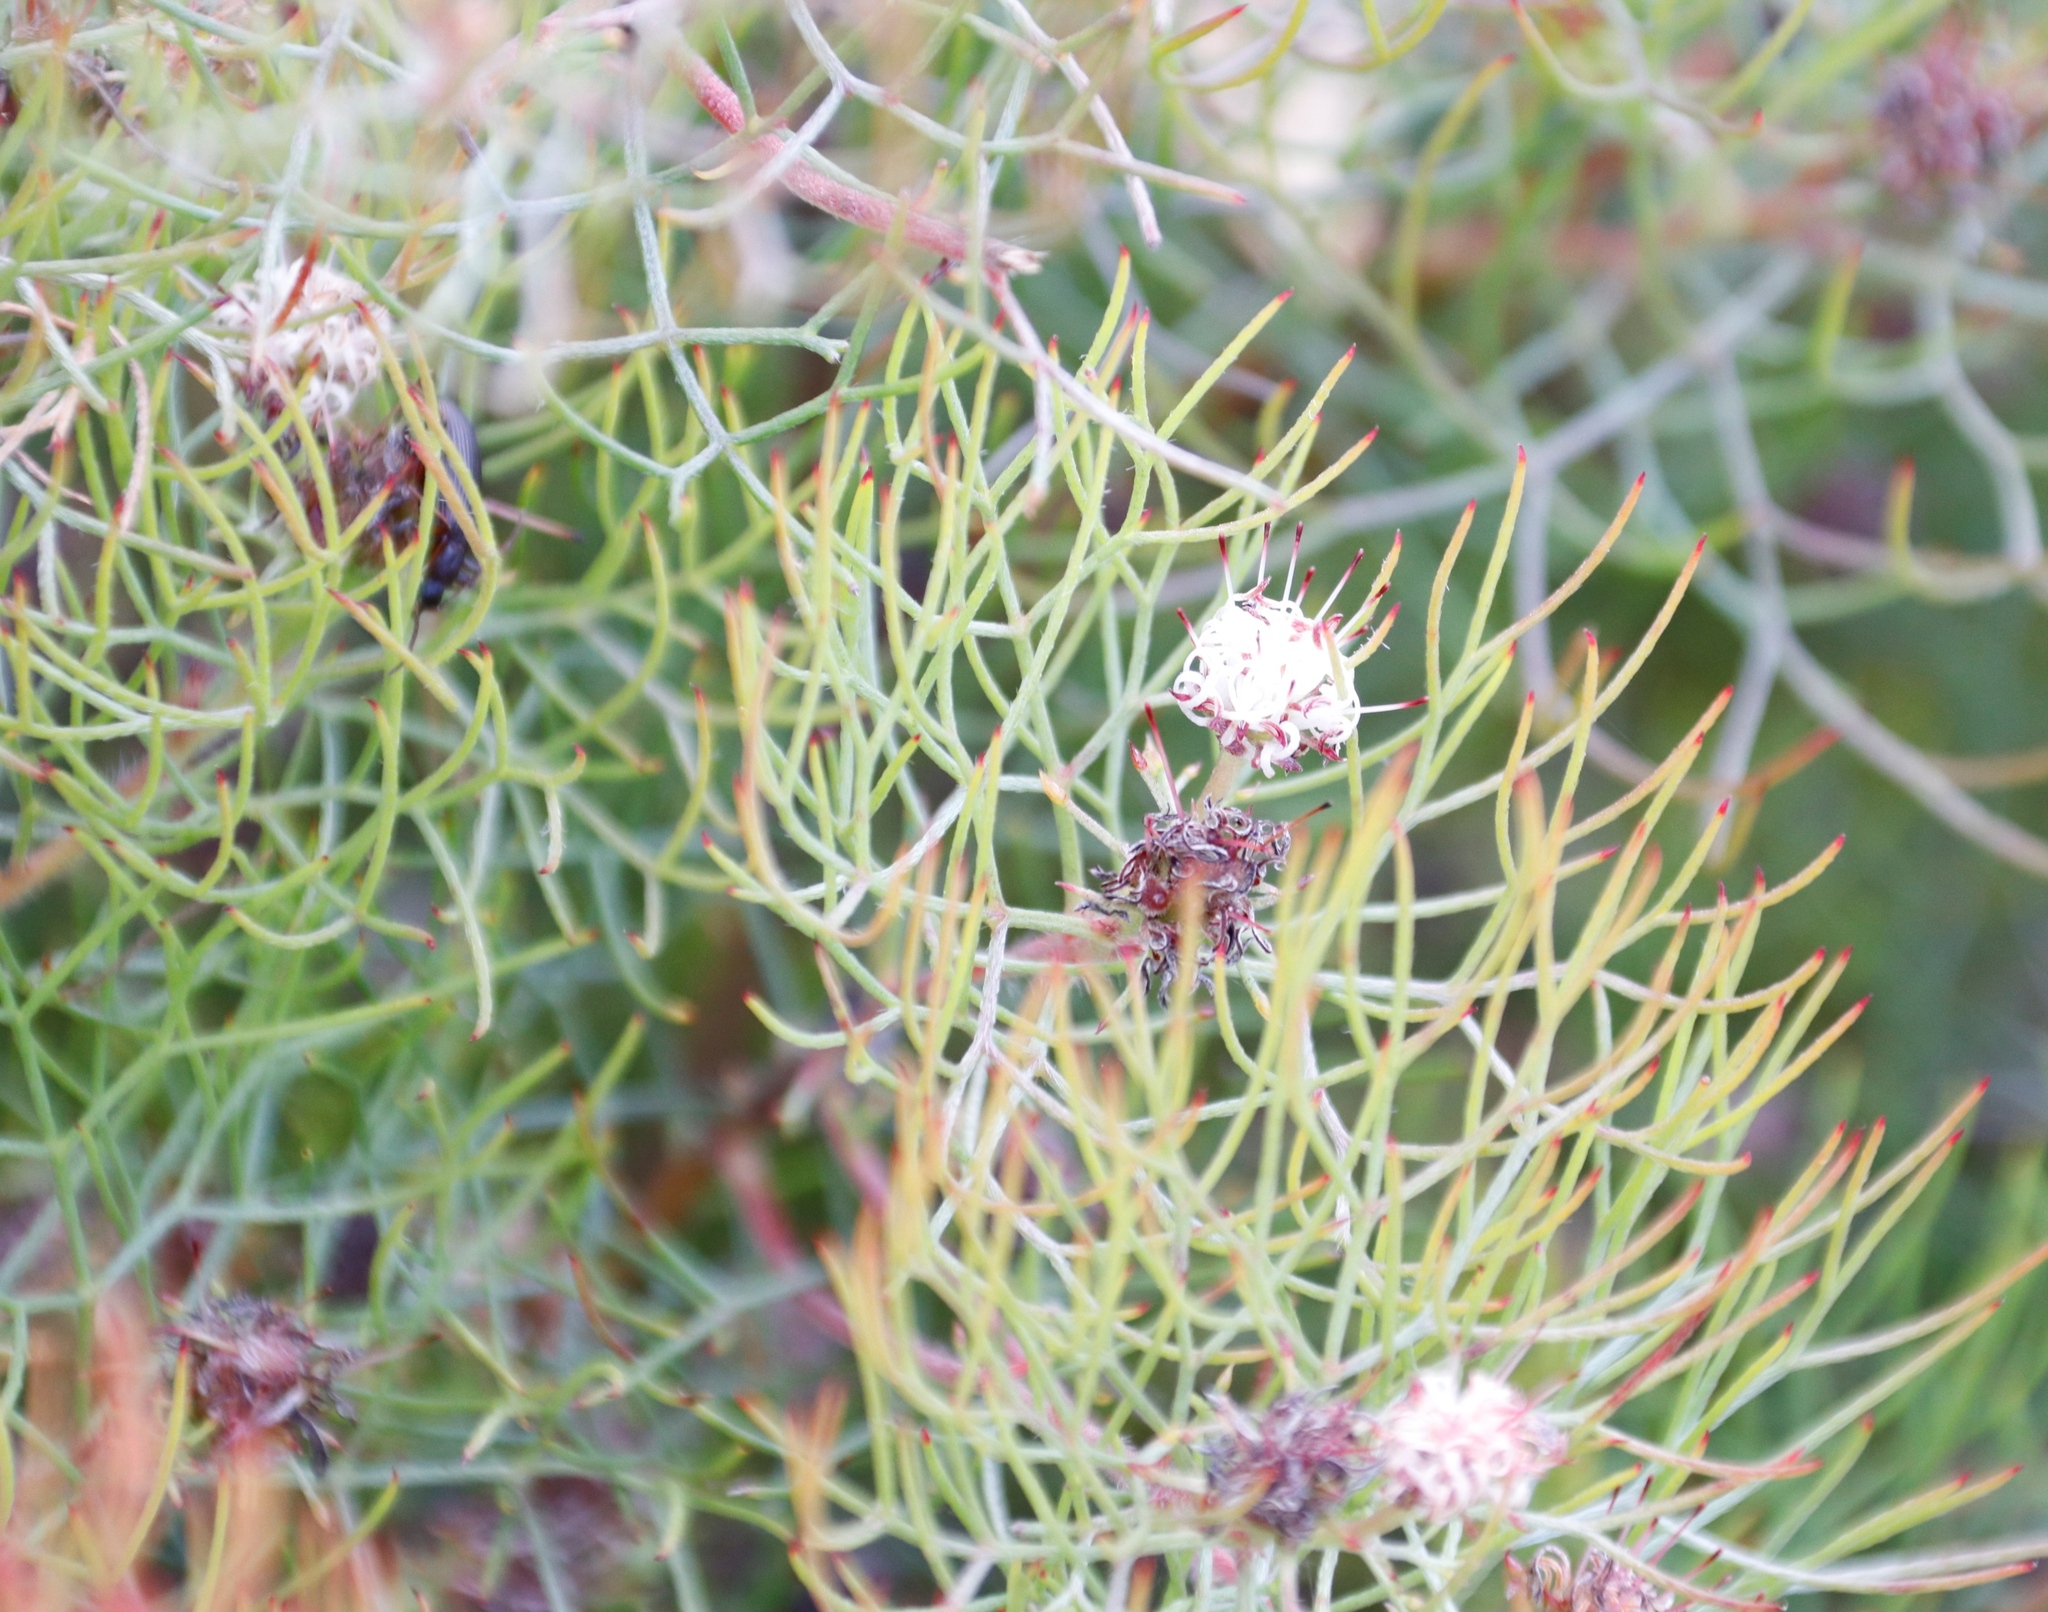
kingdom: Plantae
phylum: Tracheophyta
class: Magnoliopsida
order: Proteales
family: Proteaceae
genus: Serruria
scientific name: Serruria fasciflora
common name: Common pin spiderhead
